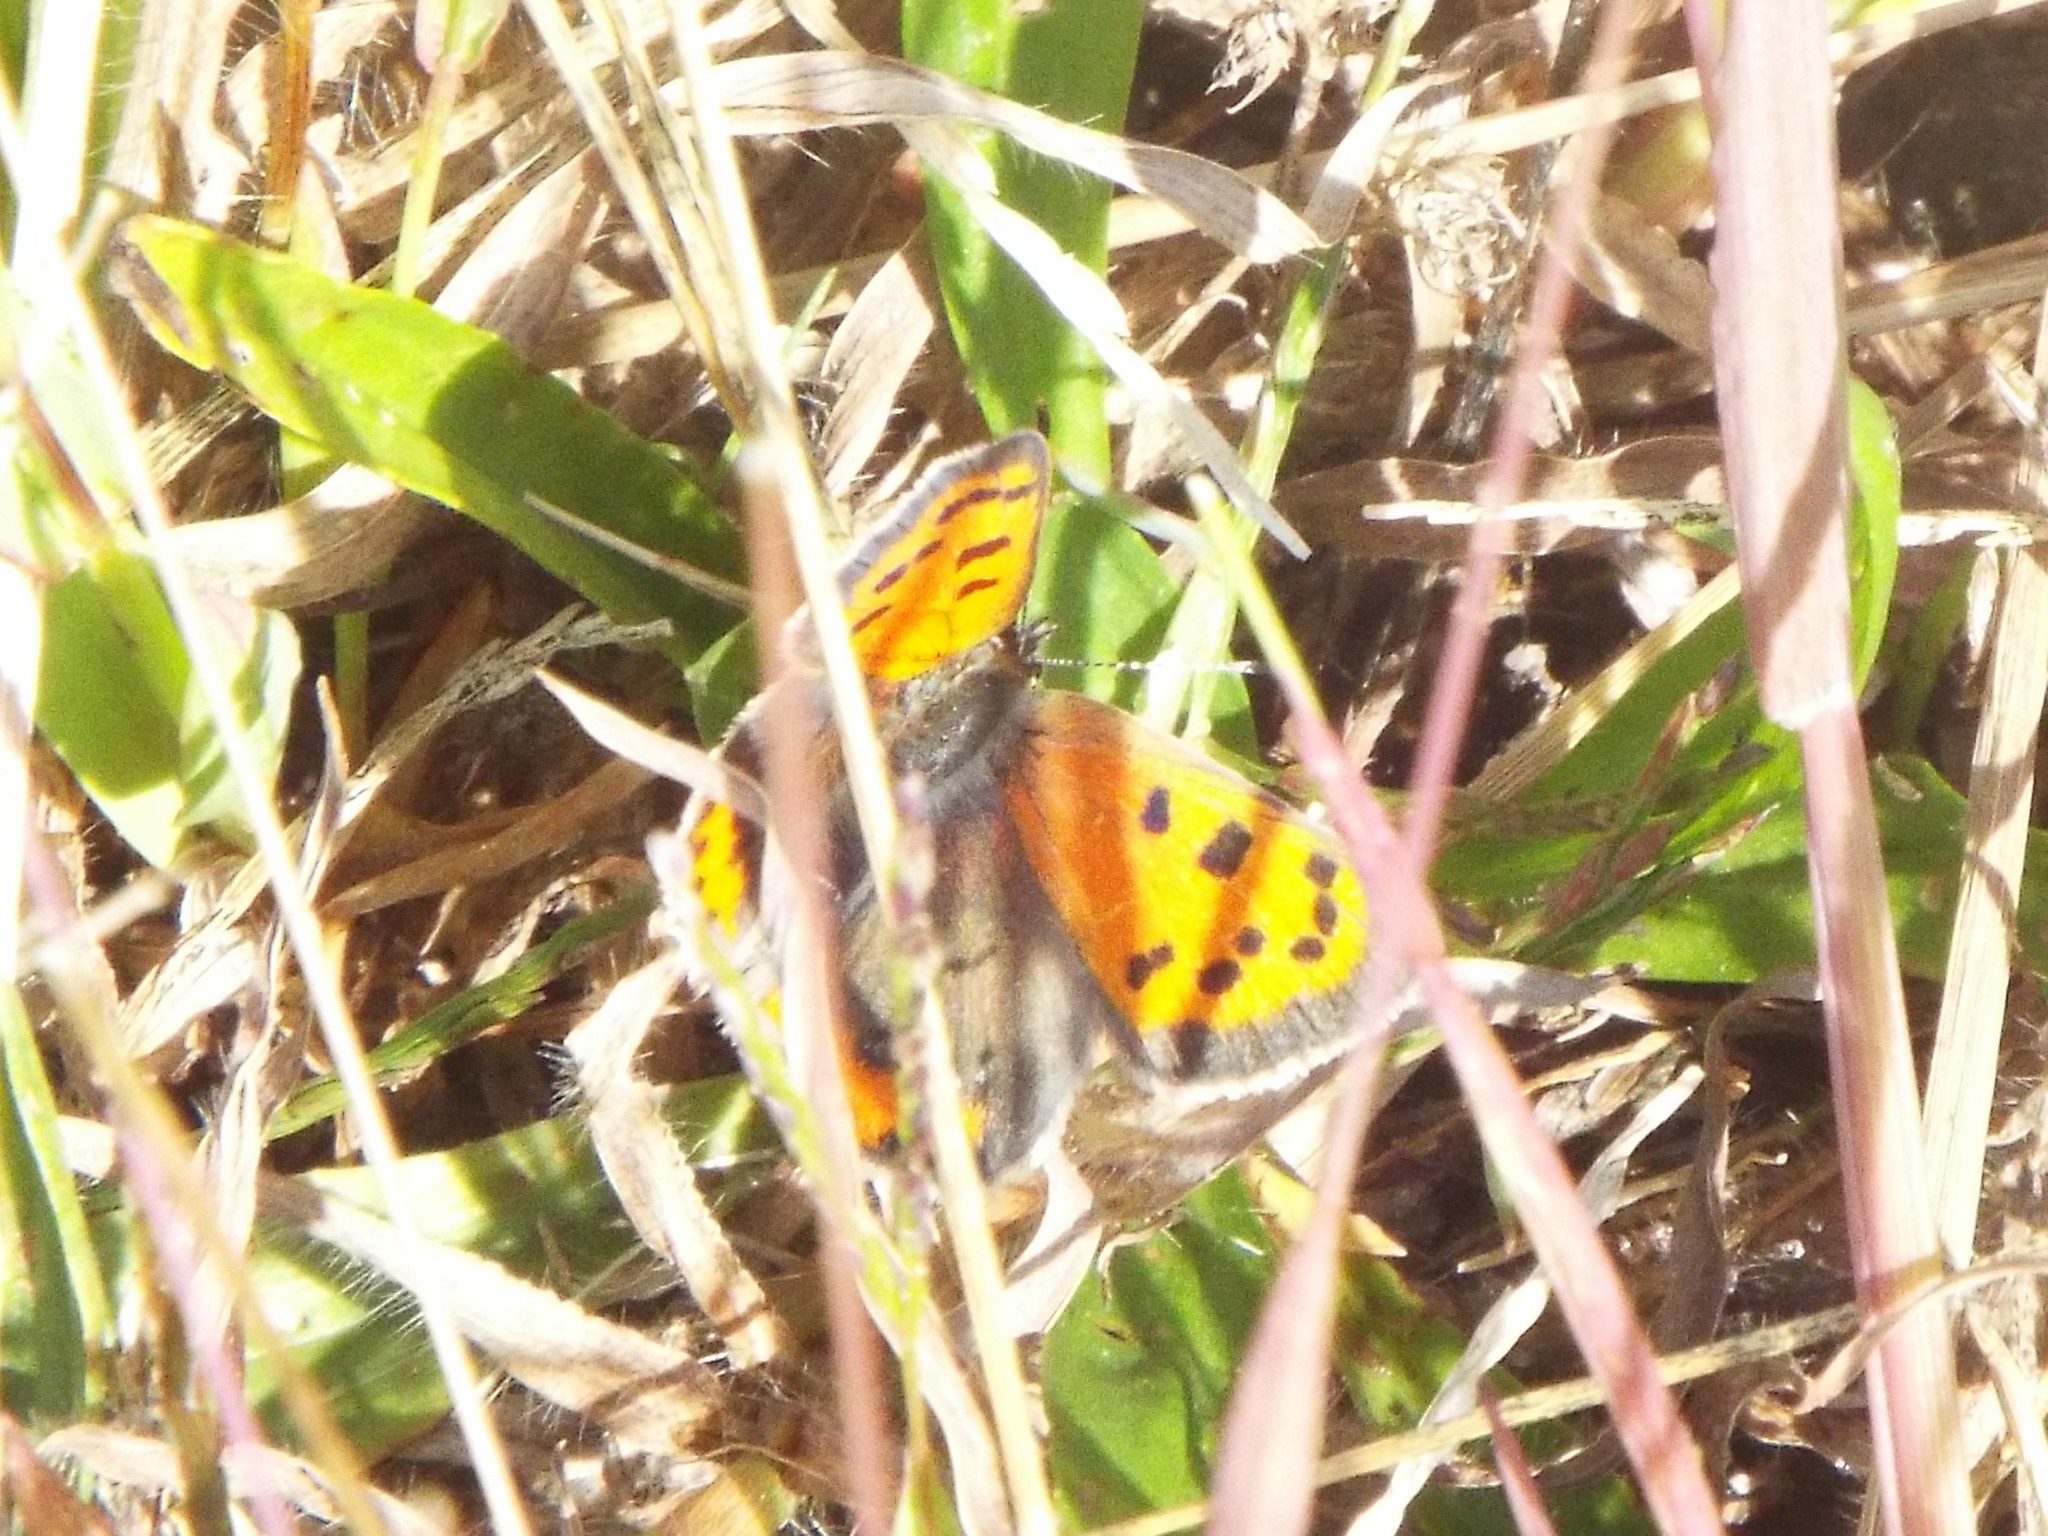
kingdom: Animalia
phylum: Arthropoda
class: Insecta
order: Lepidoptera
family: Lycaenidae
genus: Lycaena
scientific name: Lycaena hypophlaeas
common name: American copper
